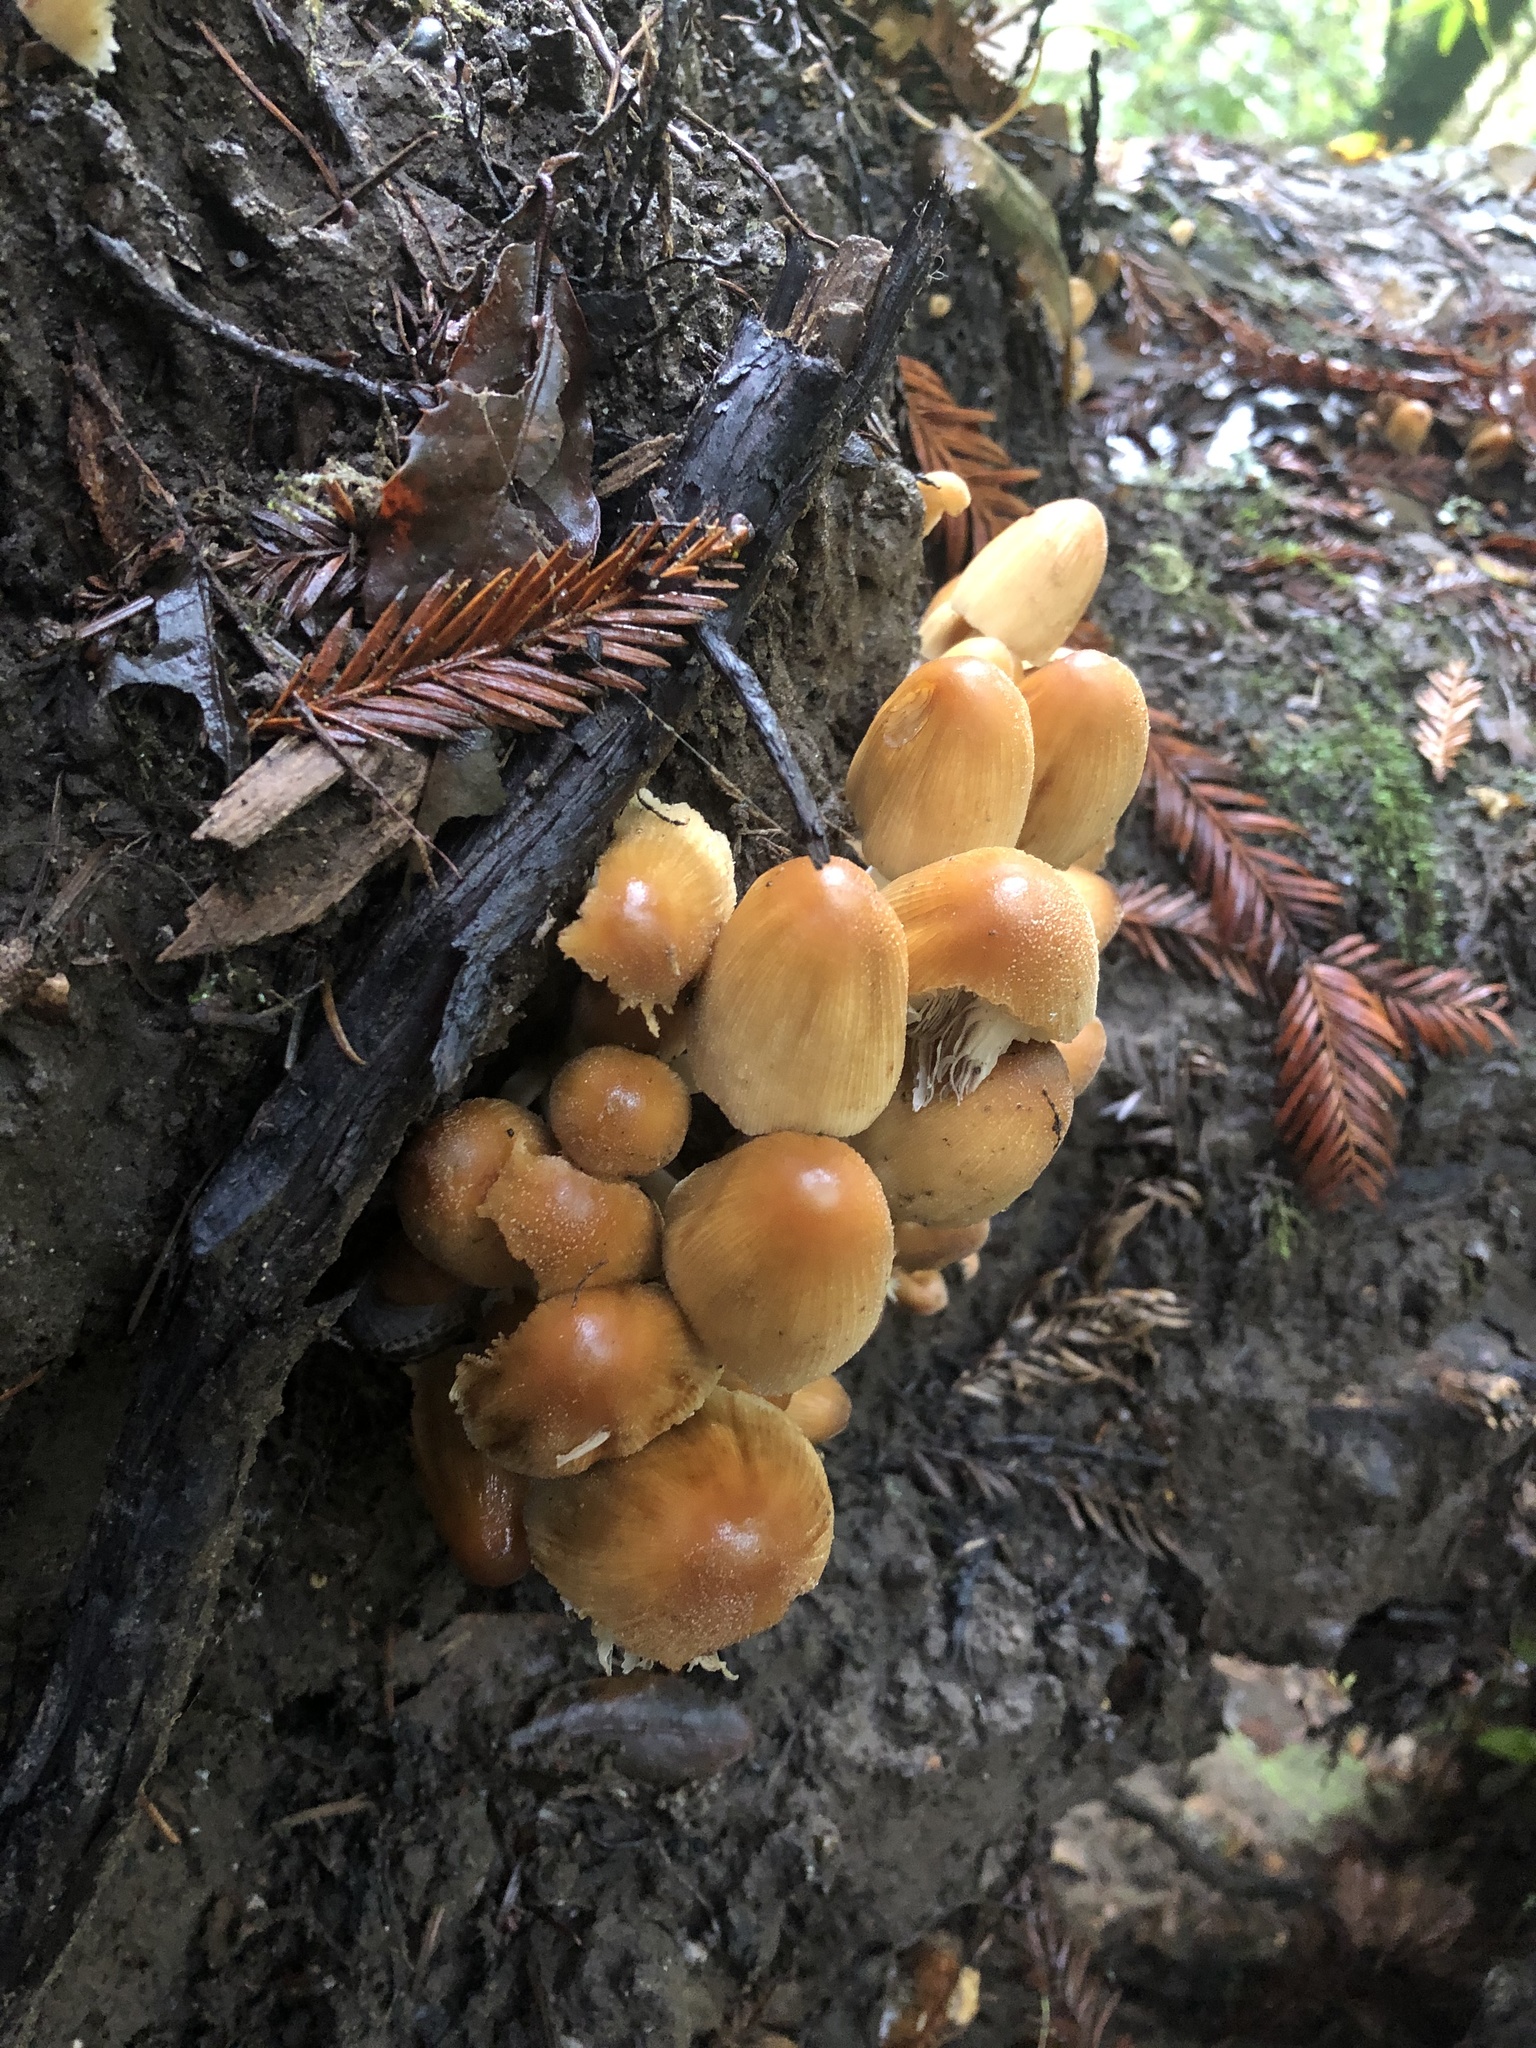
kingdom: Fungi
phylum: Basidiomycota
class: Agaricomycetes
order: Agaricales
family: Psathyrellaceae
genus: Coprinellus
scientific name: Coprinellus micaceus
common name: Glistening ink-cap
